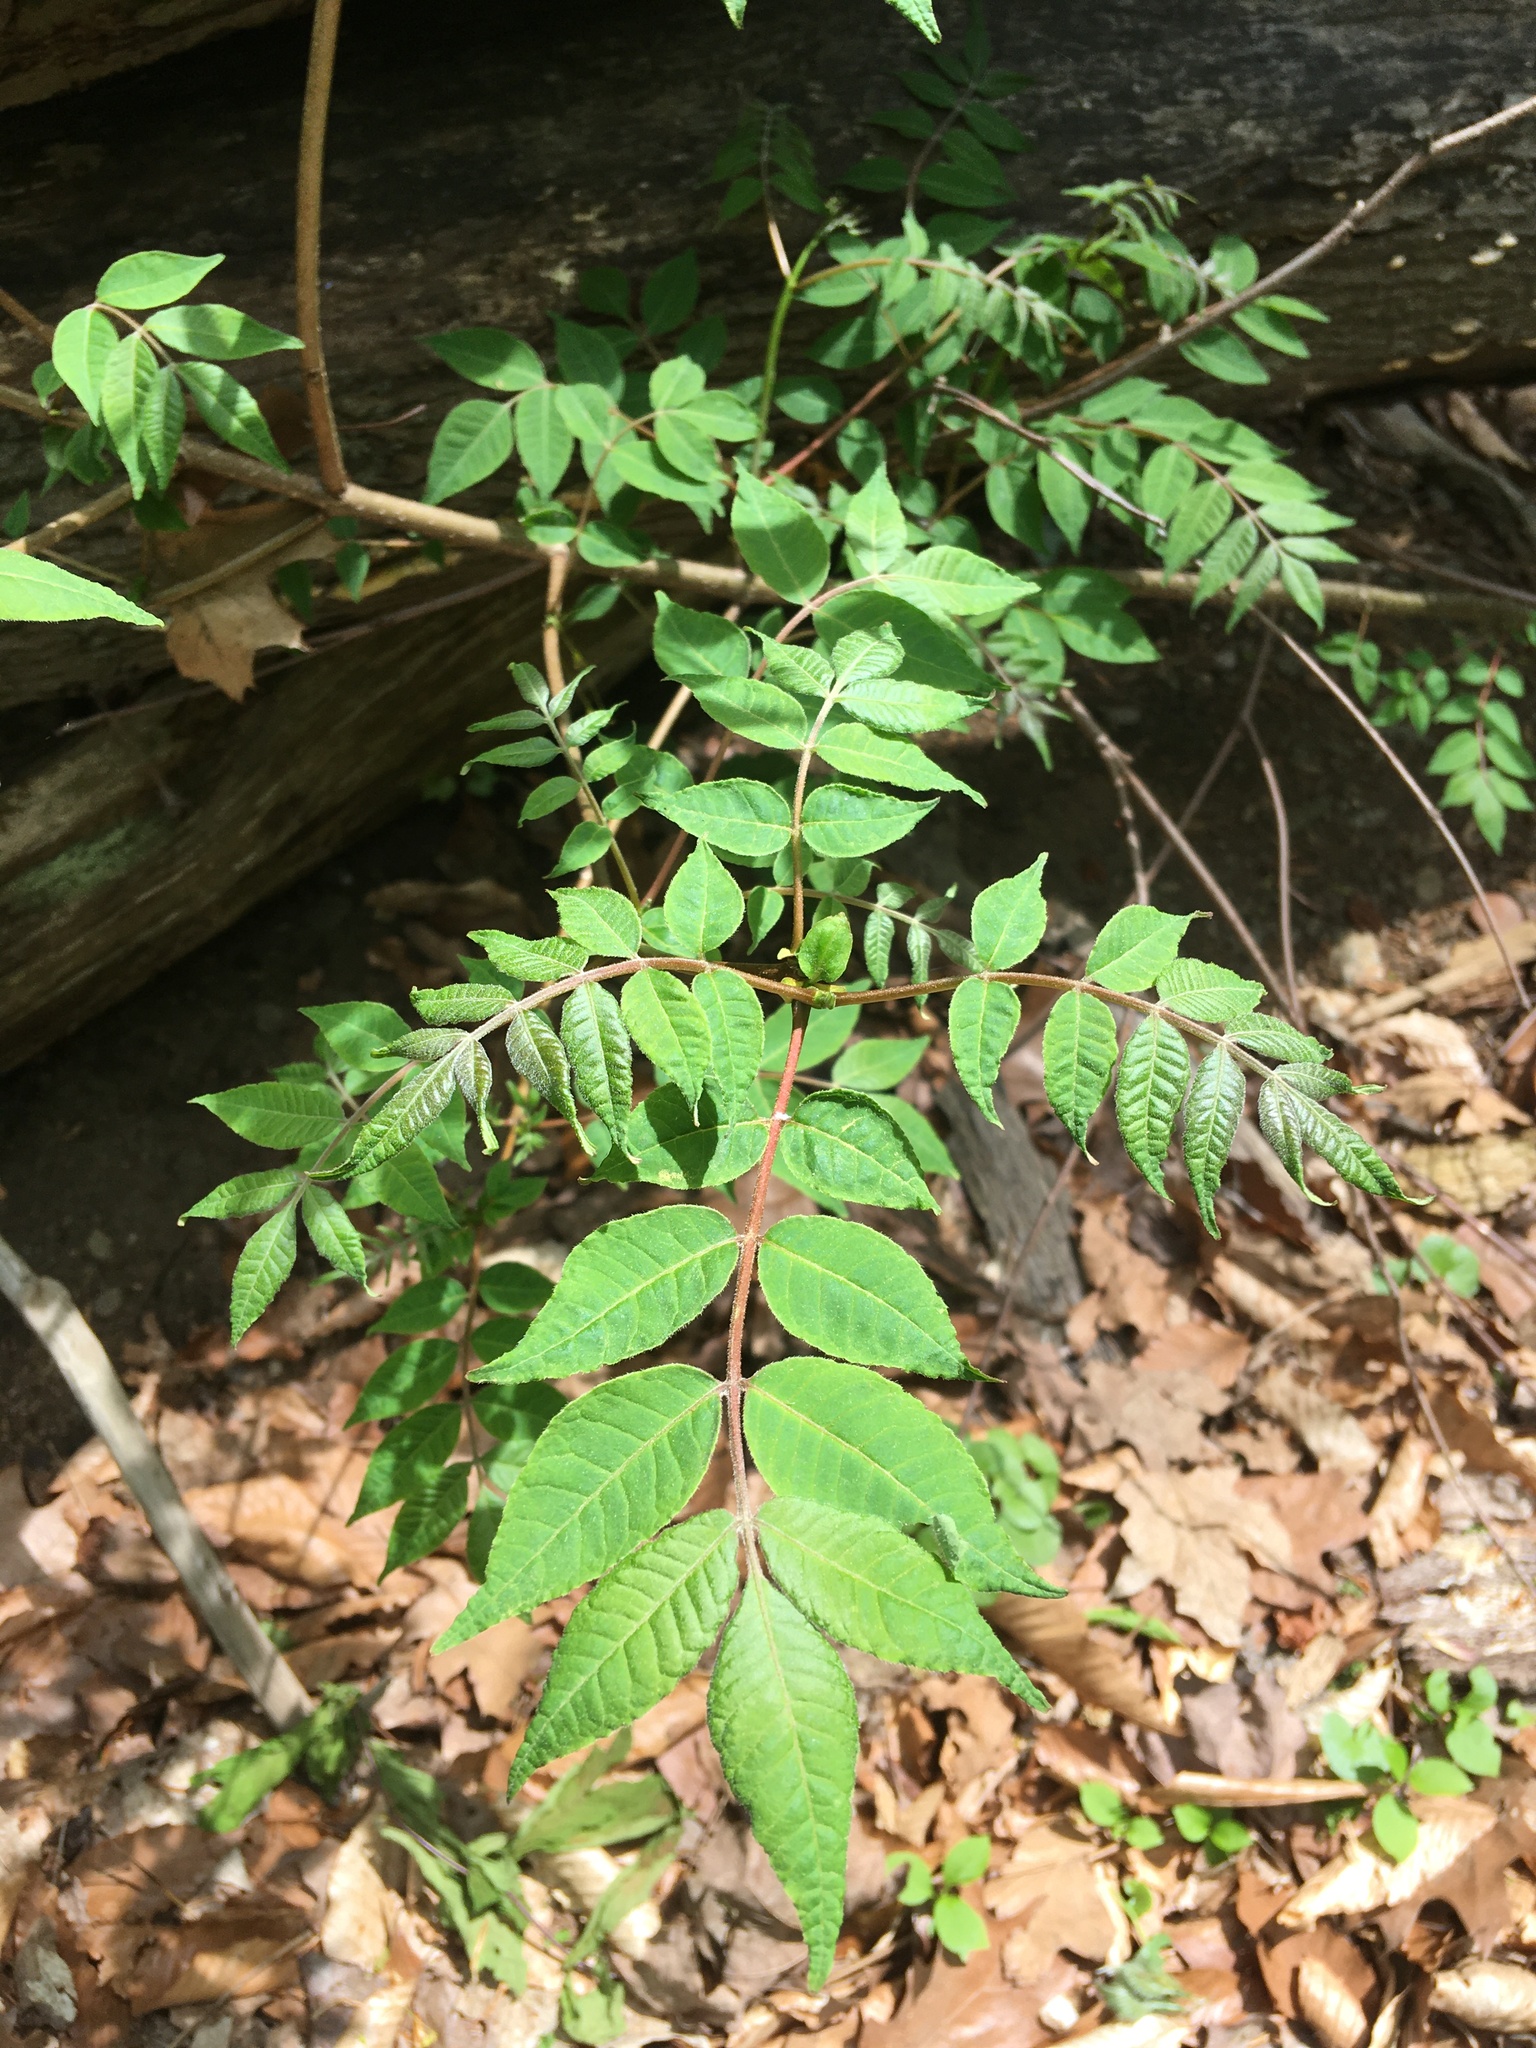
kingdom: Plantae
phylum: Tracheophyta
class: Magnoliopsida
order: Sapindales
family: Rutaceae
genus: Phellodendron
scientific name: Phellodendron amurense
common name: Amur corktree
